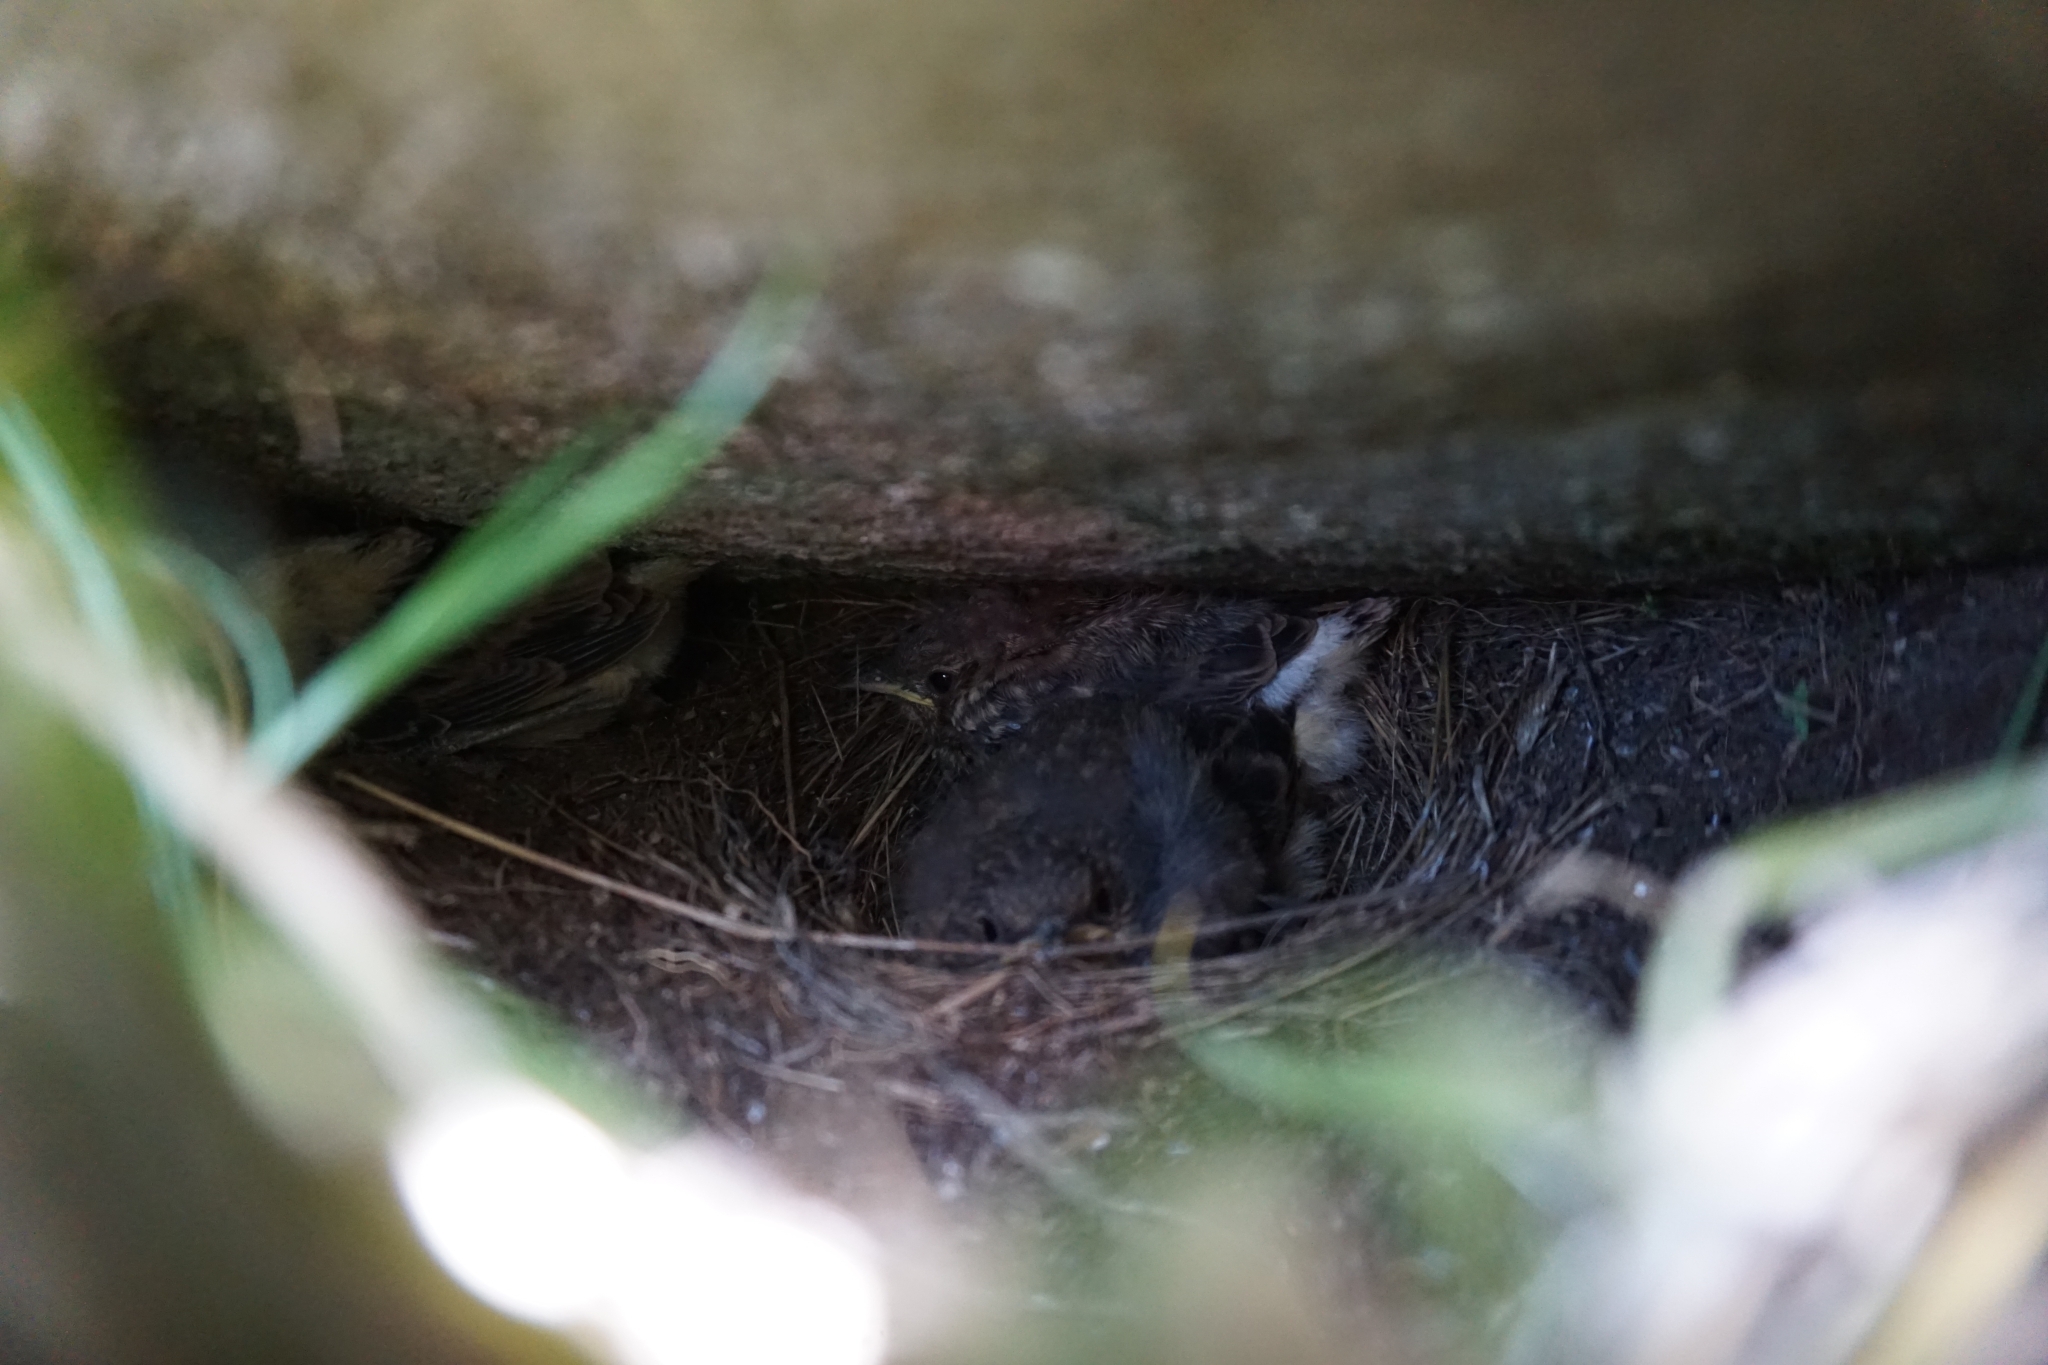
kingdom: Animalia
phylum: Chordata
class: Aves
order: Passeriformes
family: Muscicapidae
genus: Oenanthe
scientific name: Oenanthe oenanthe
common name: Northern wheatear
